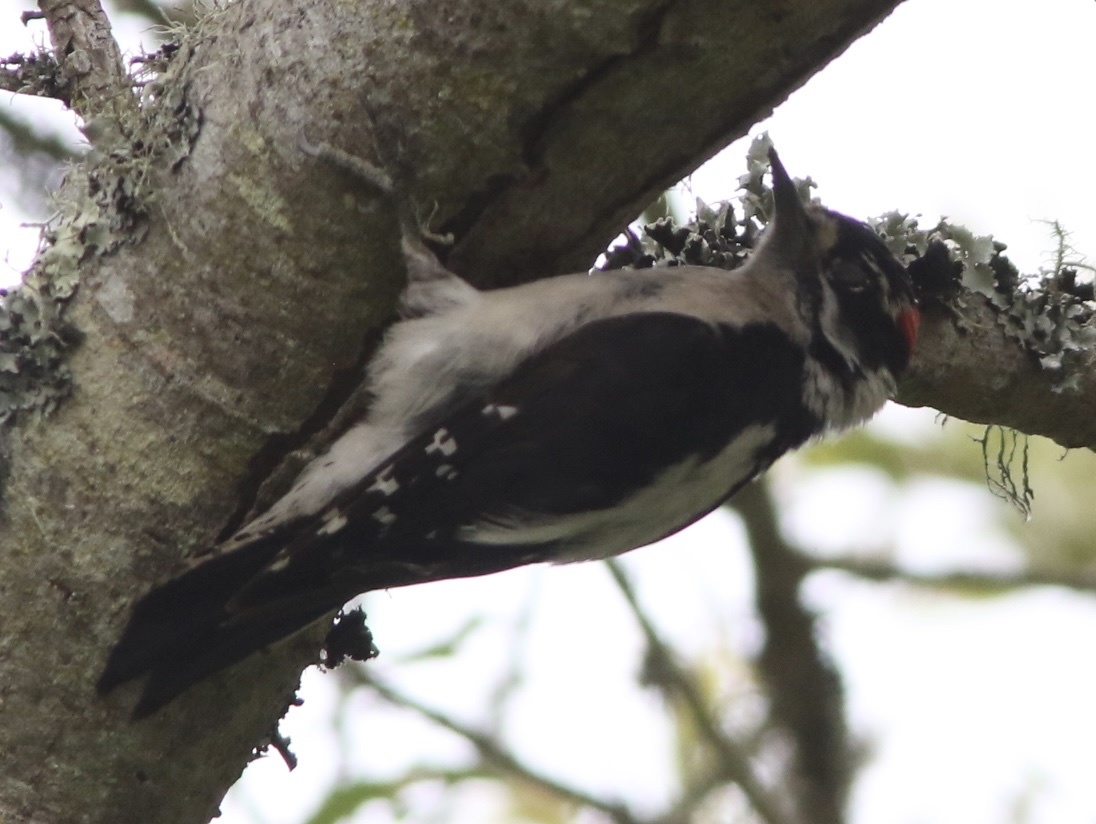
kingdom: Animalia
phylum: Chordata
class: Aves
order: Piciformes
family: Picidae
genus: Dryobates
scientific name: Dryobates pubescens
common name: Downy woodpecker
